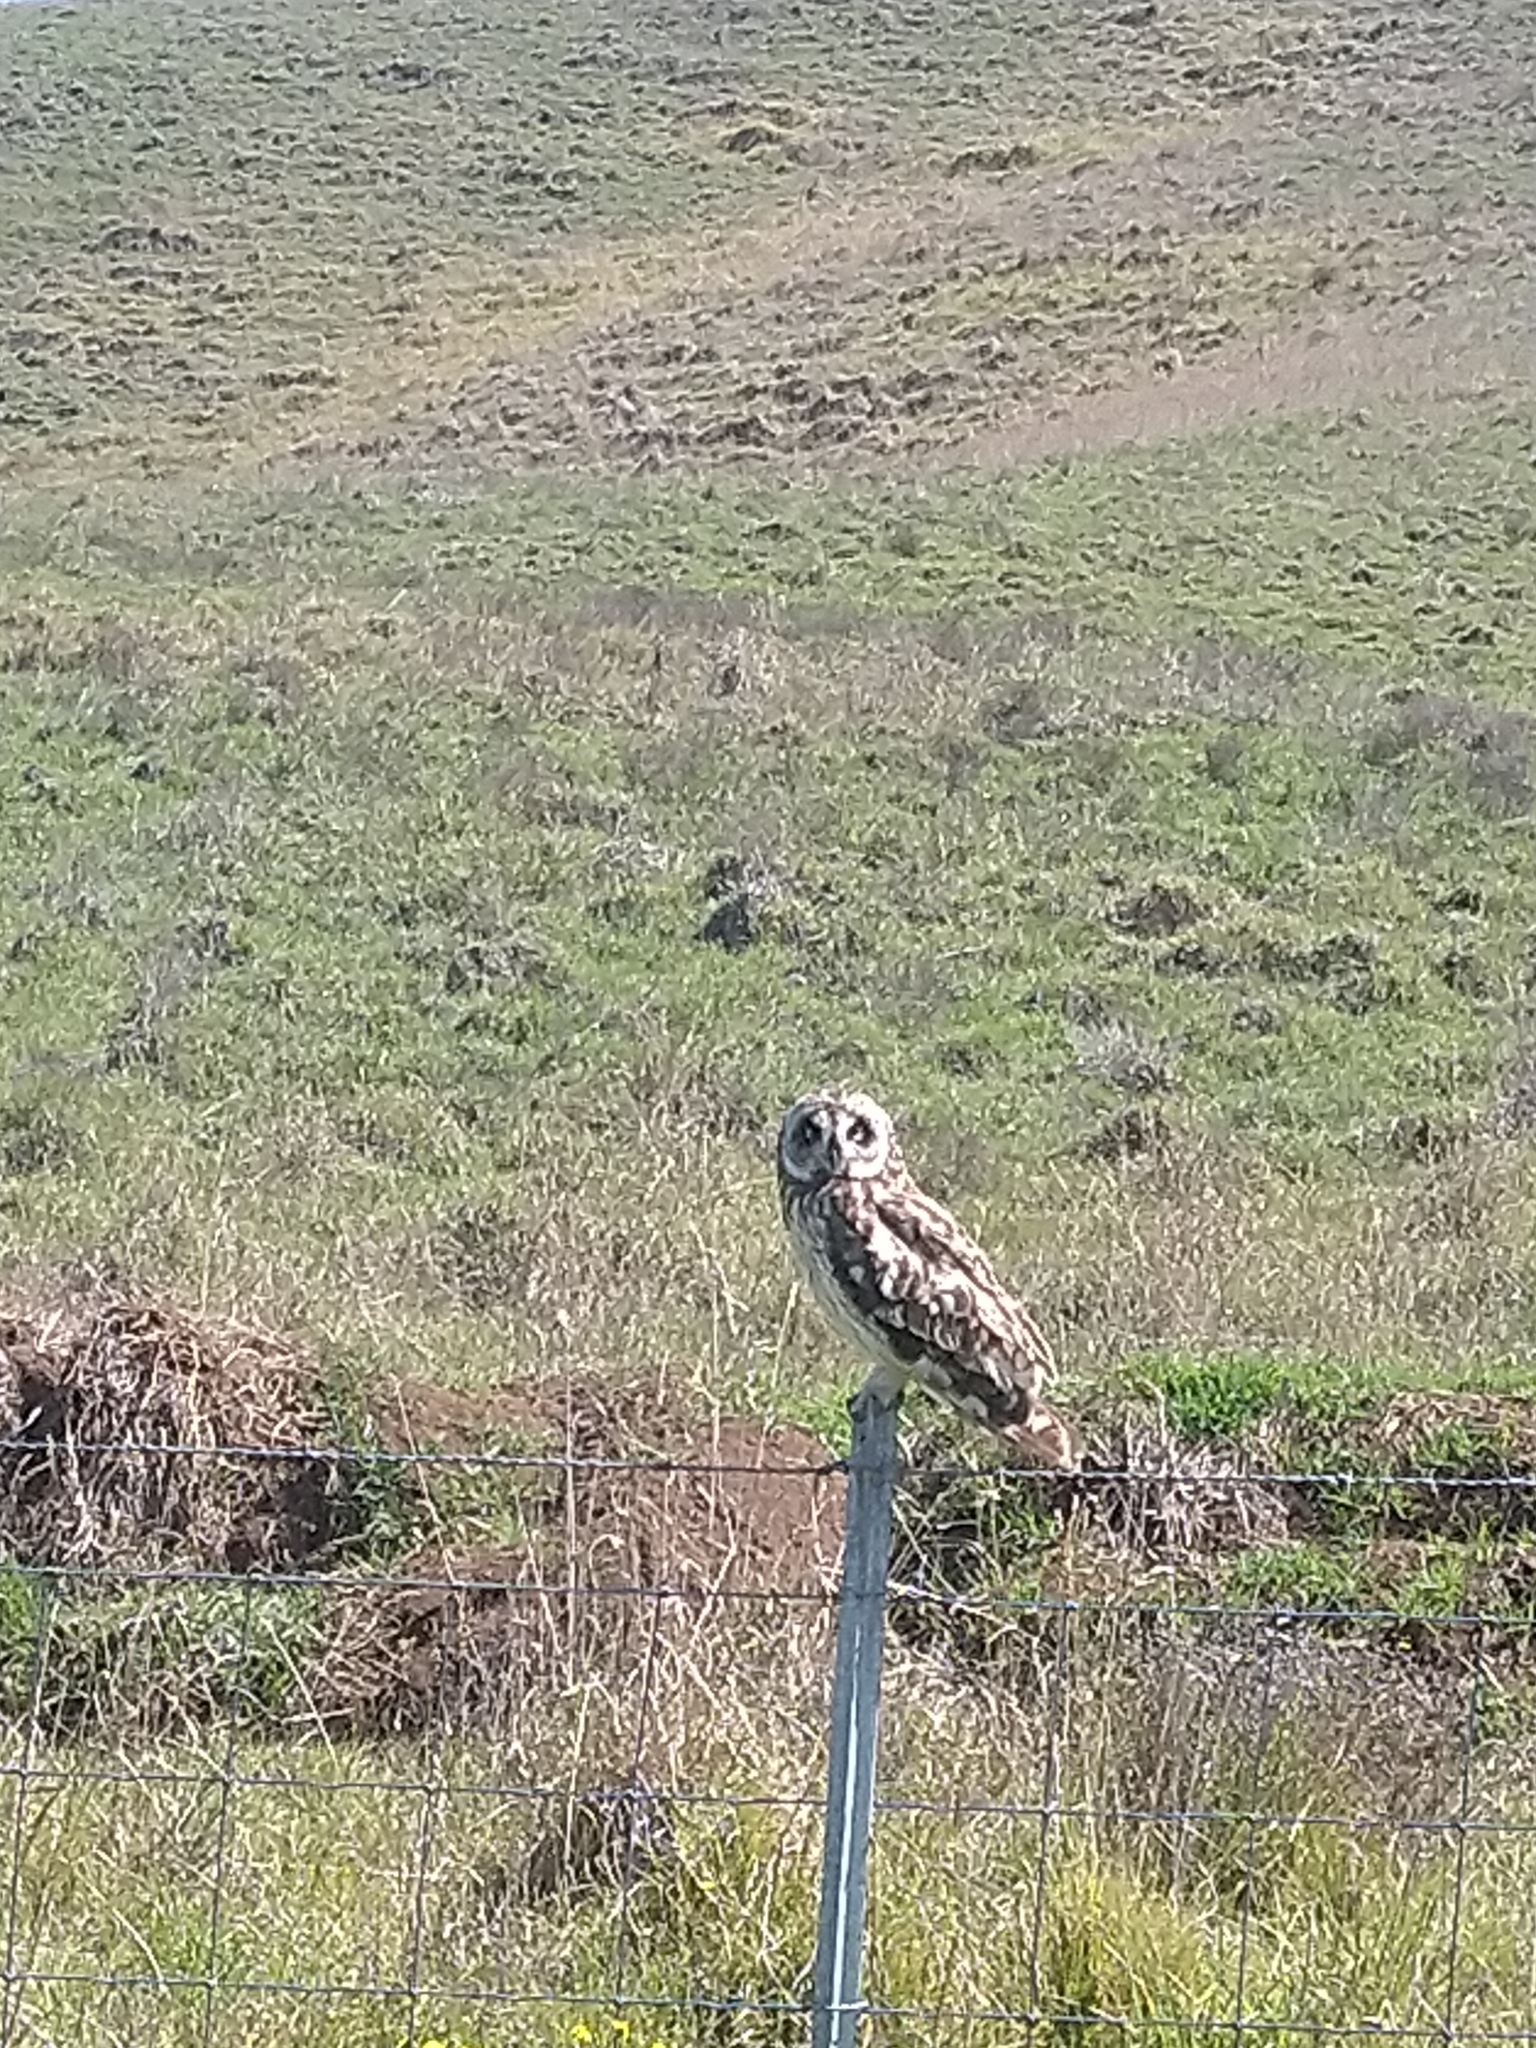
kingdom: Animalia
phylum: Chordata
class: Aves
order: Strigiformes
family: Strigidae
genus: Asio
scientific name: Asio flammeus
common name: Short-eared owl
